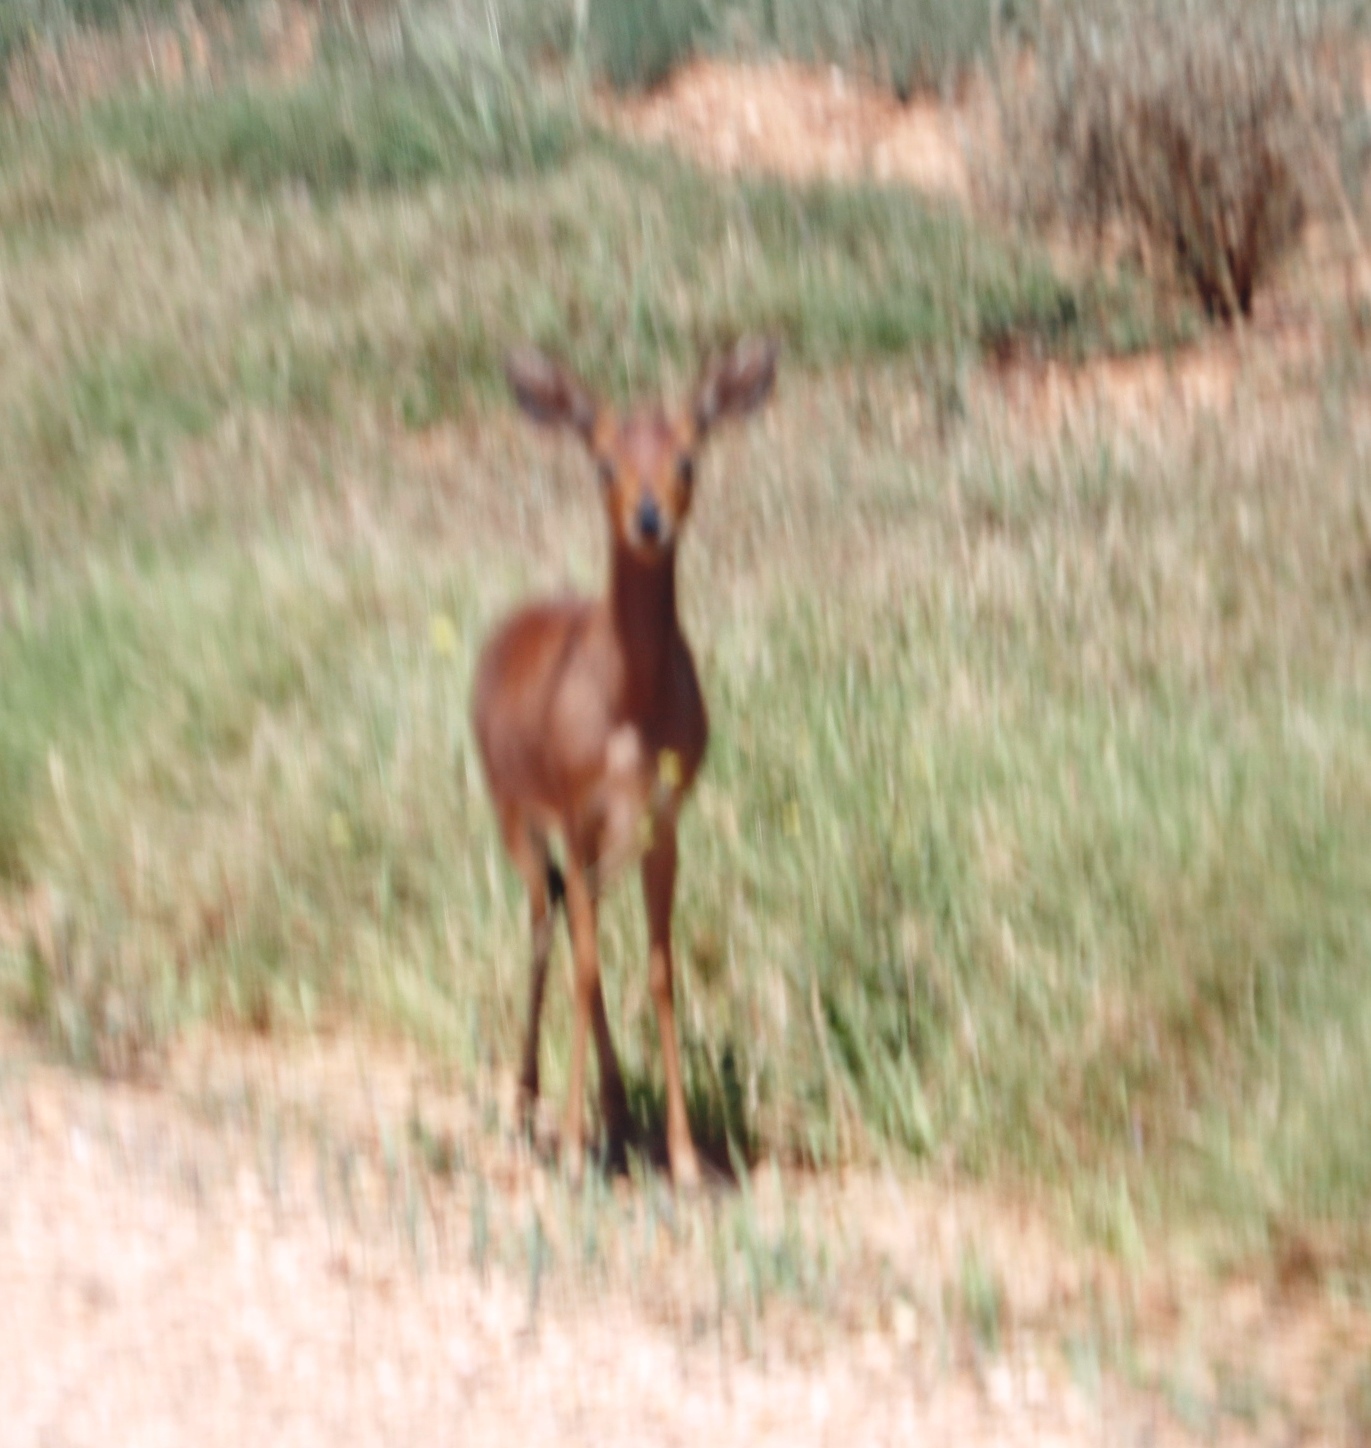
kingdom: Animalia
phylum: Chordata
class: Mammalia
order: Artiodactyla
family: Bovidae
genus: Raphicerus
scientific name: Raphicerus campestris
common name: Steenbok
